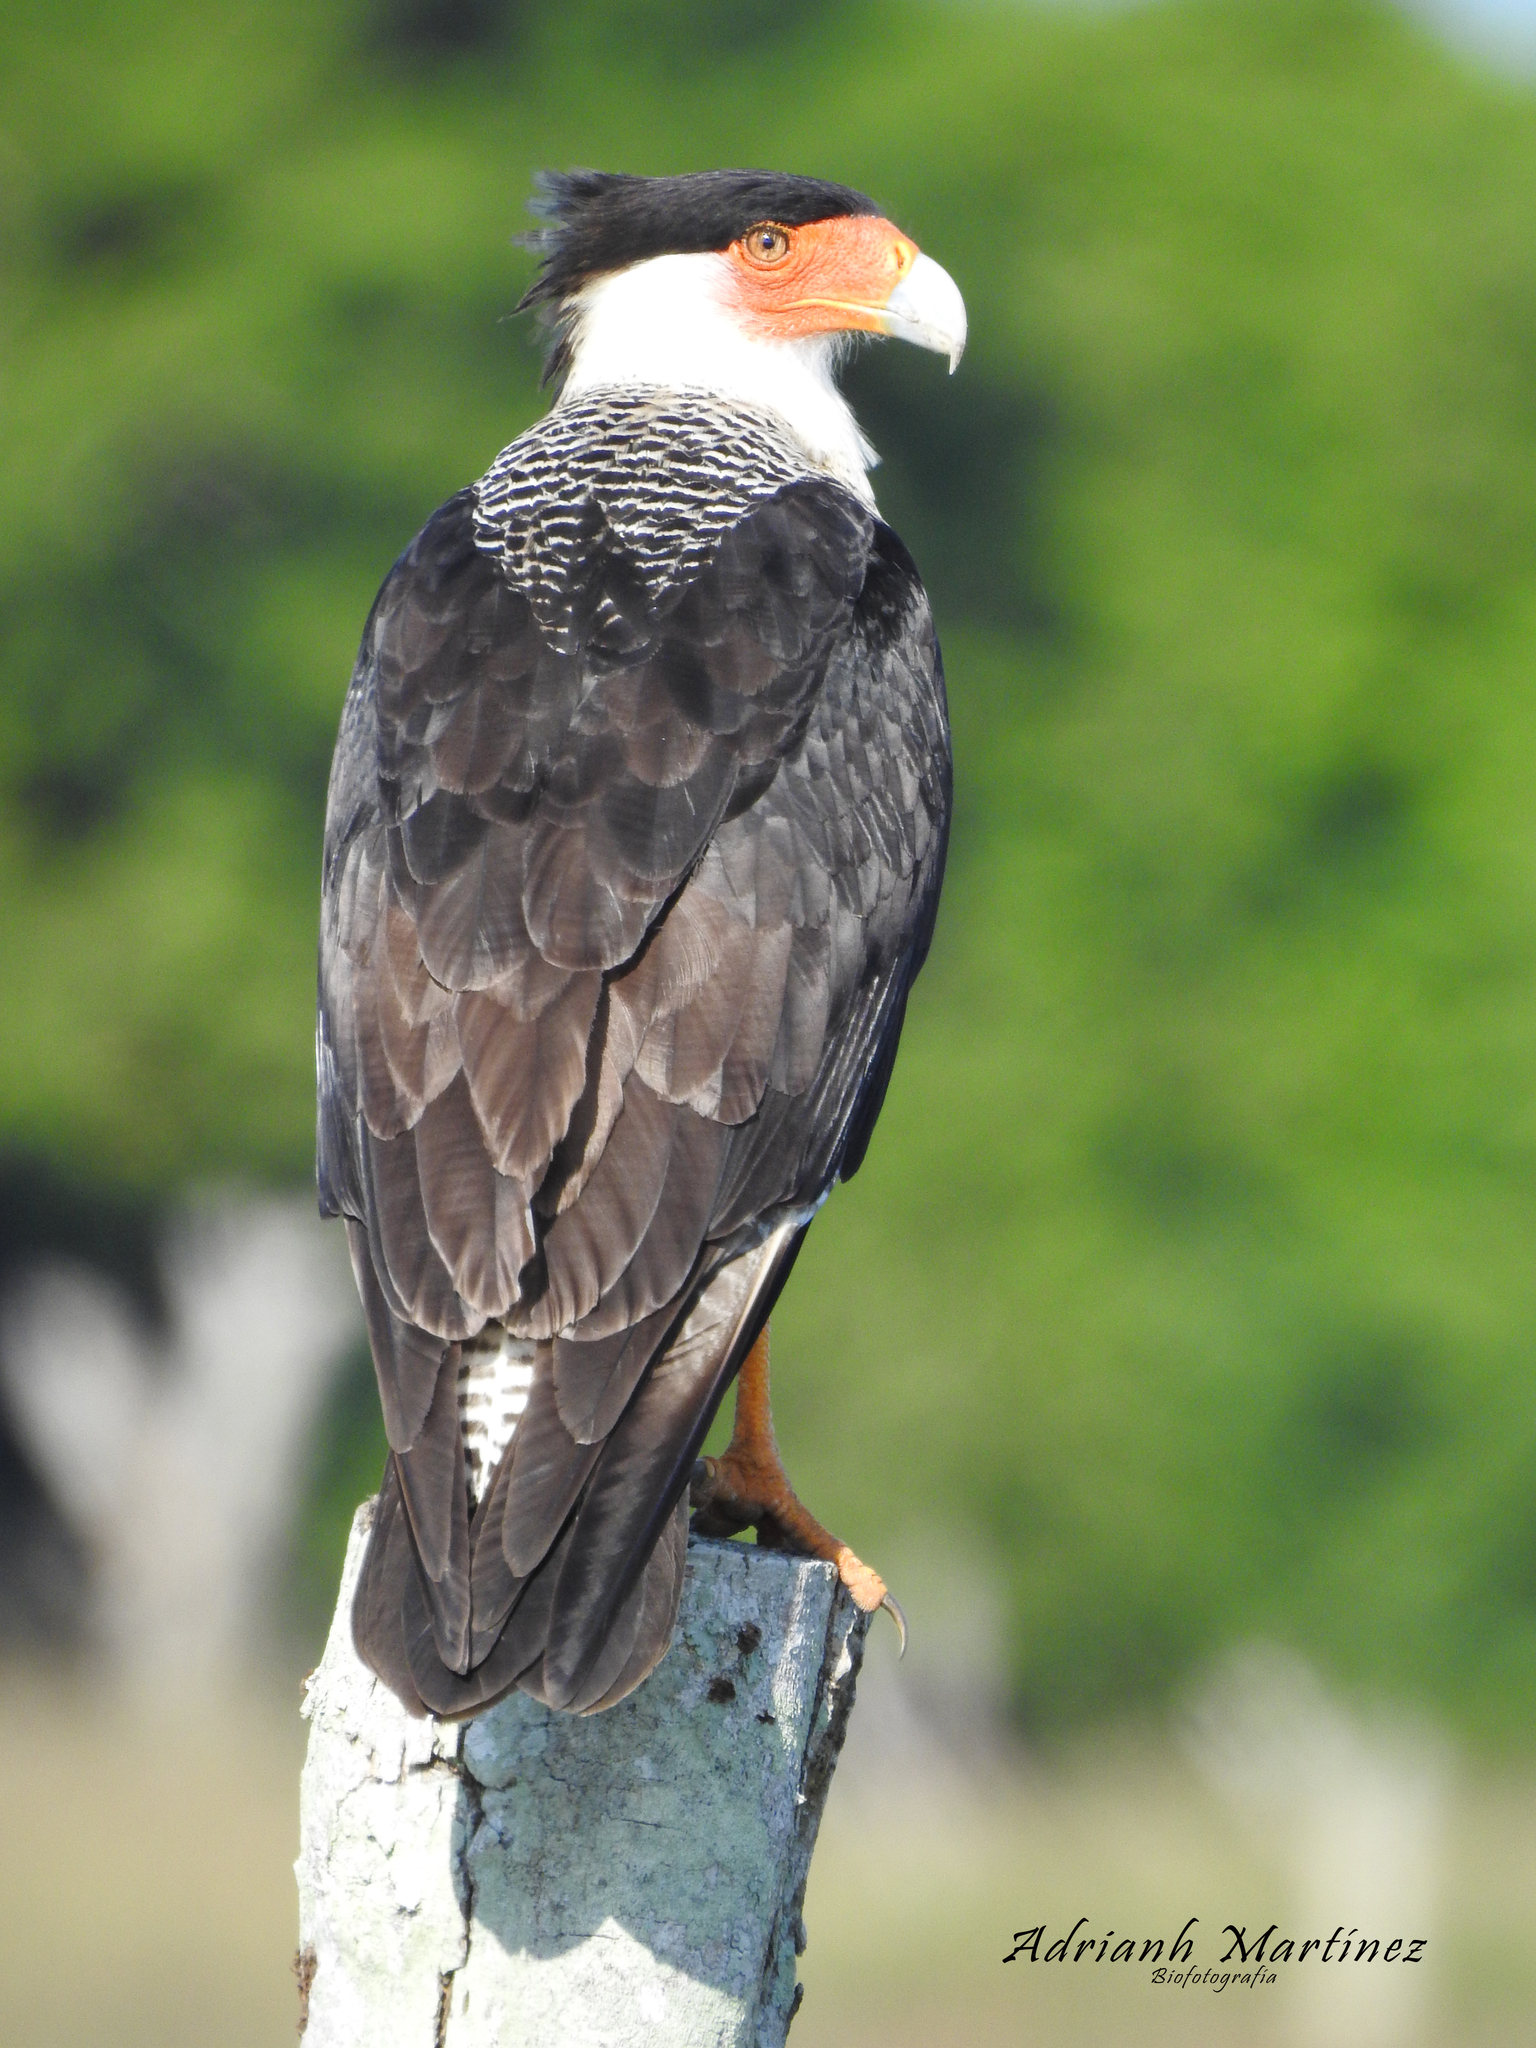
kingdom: Animalia
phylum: Chordata
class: Aves
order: Falconiformes
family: Falconidae
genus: Caracara
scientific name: Caracara plancus
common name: Southern caracara
